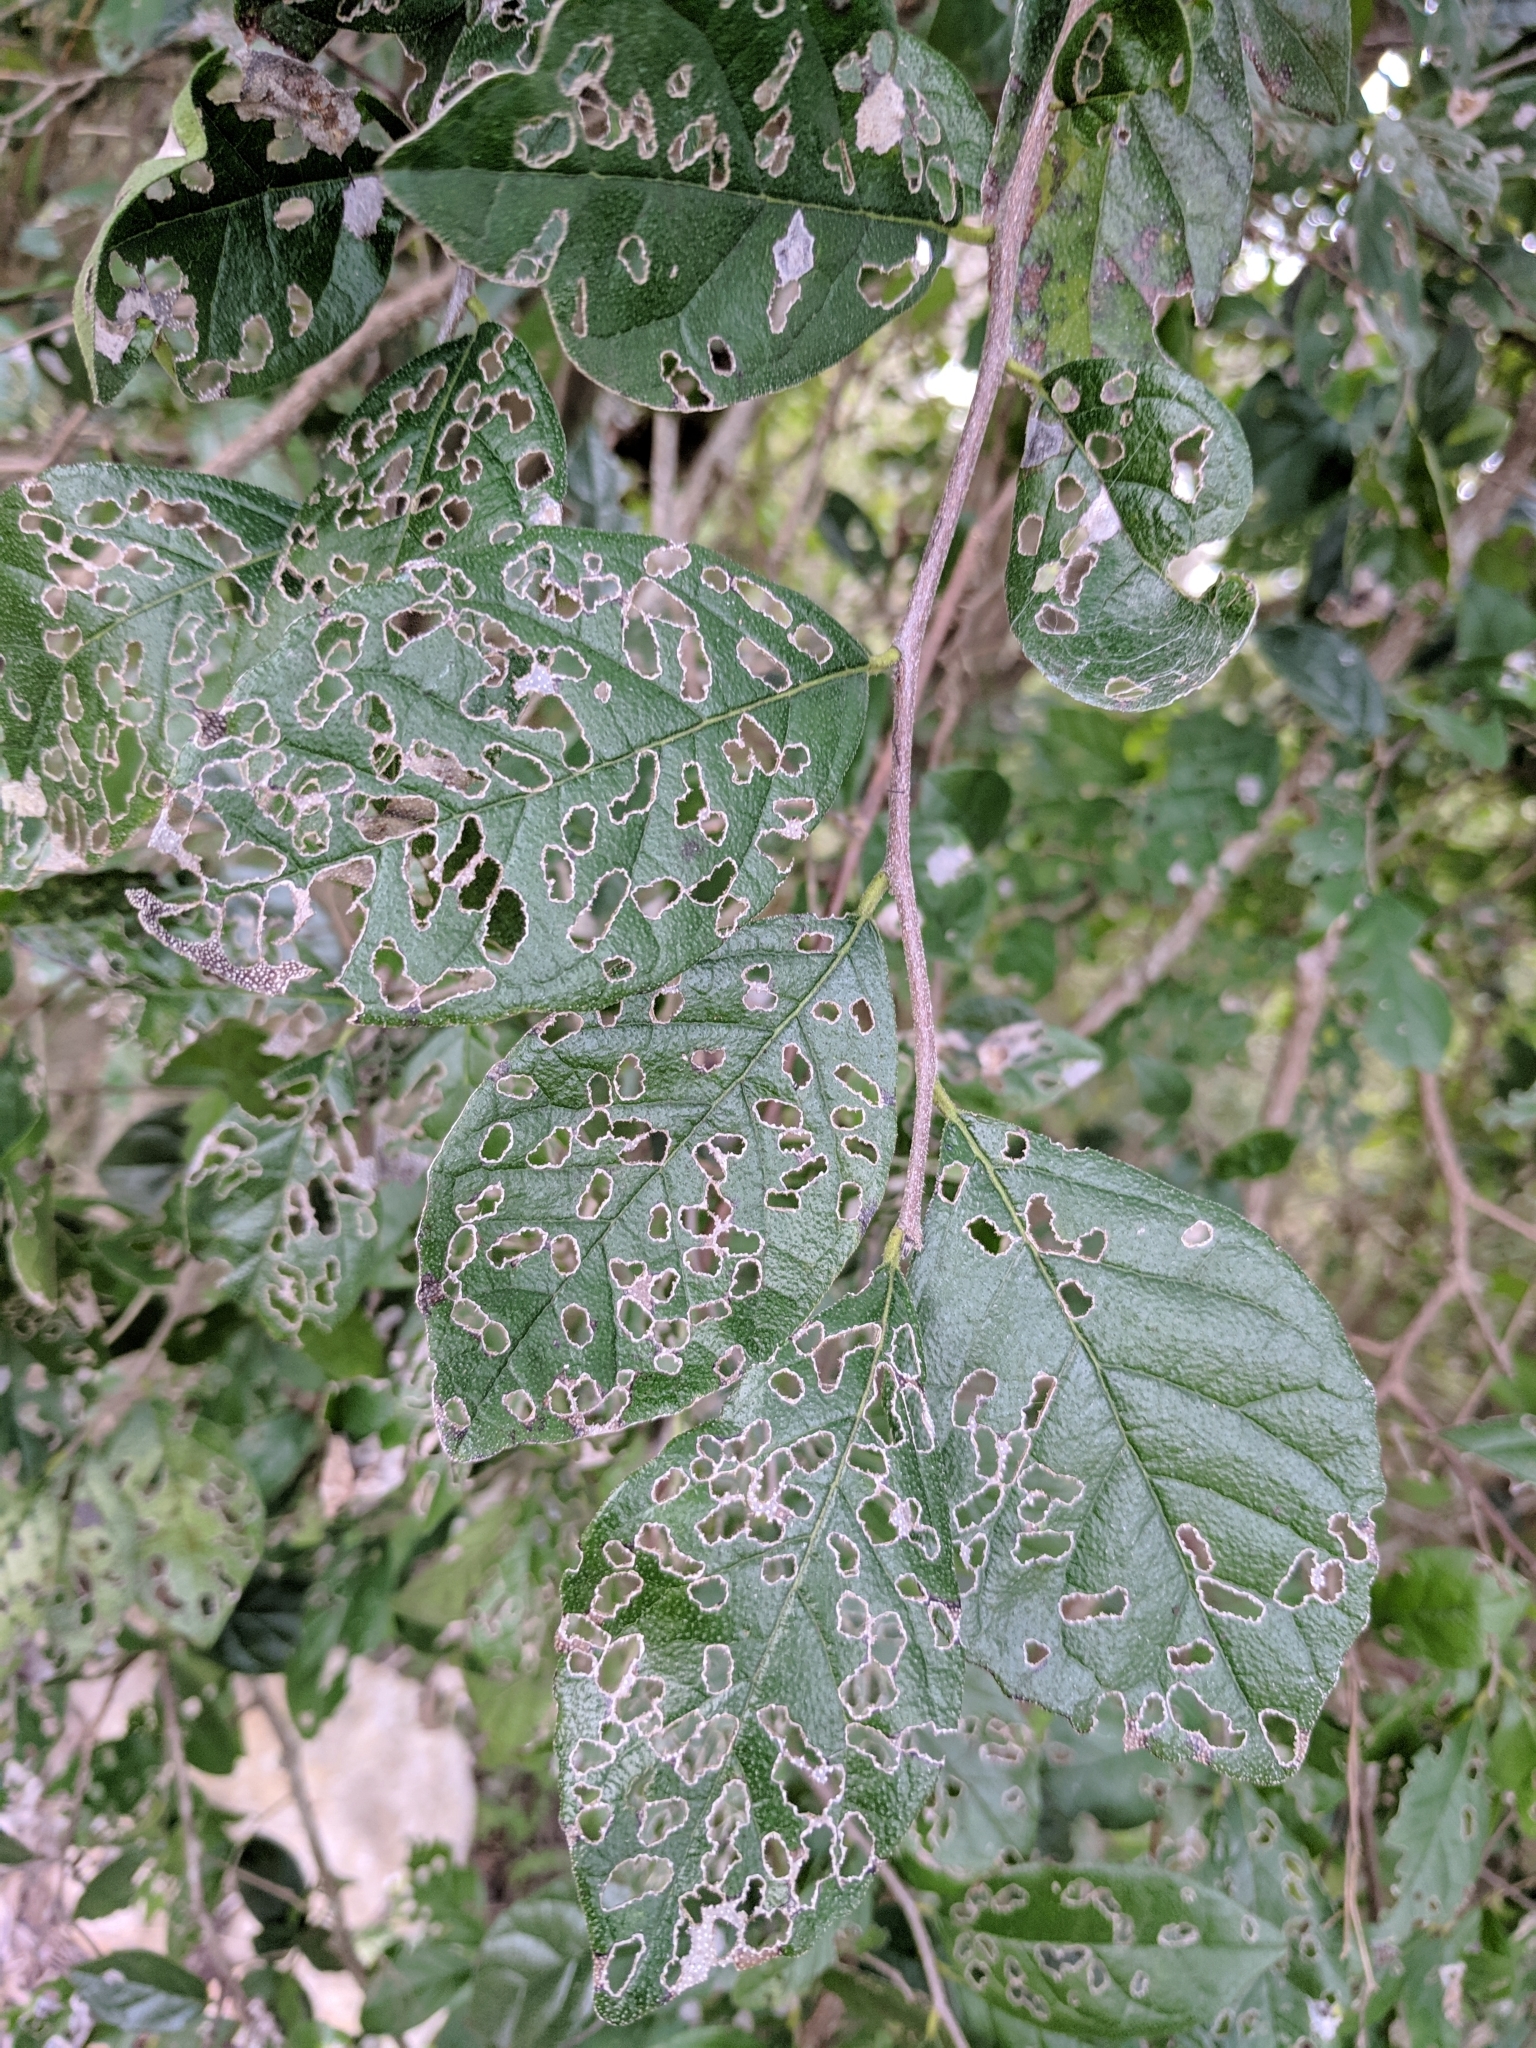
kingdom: Plantae
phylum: Tracheophyta
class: Magnoliopsida
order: Boraginales
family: Ehretiaceae
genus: Ehretia
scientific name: Ehretia anacua
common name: Sugarberry
